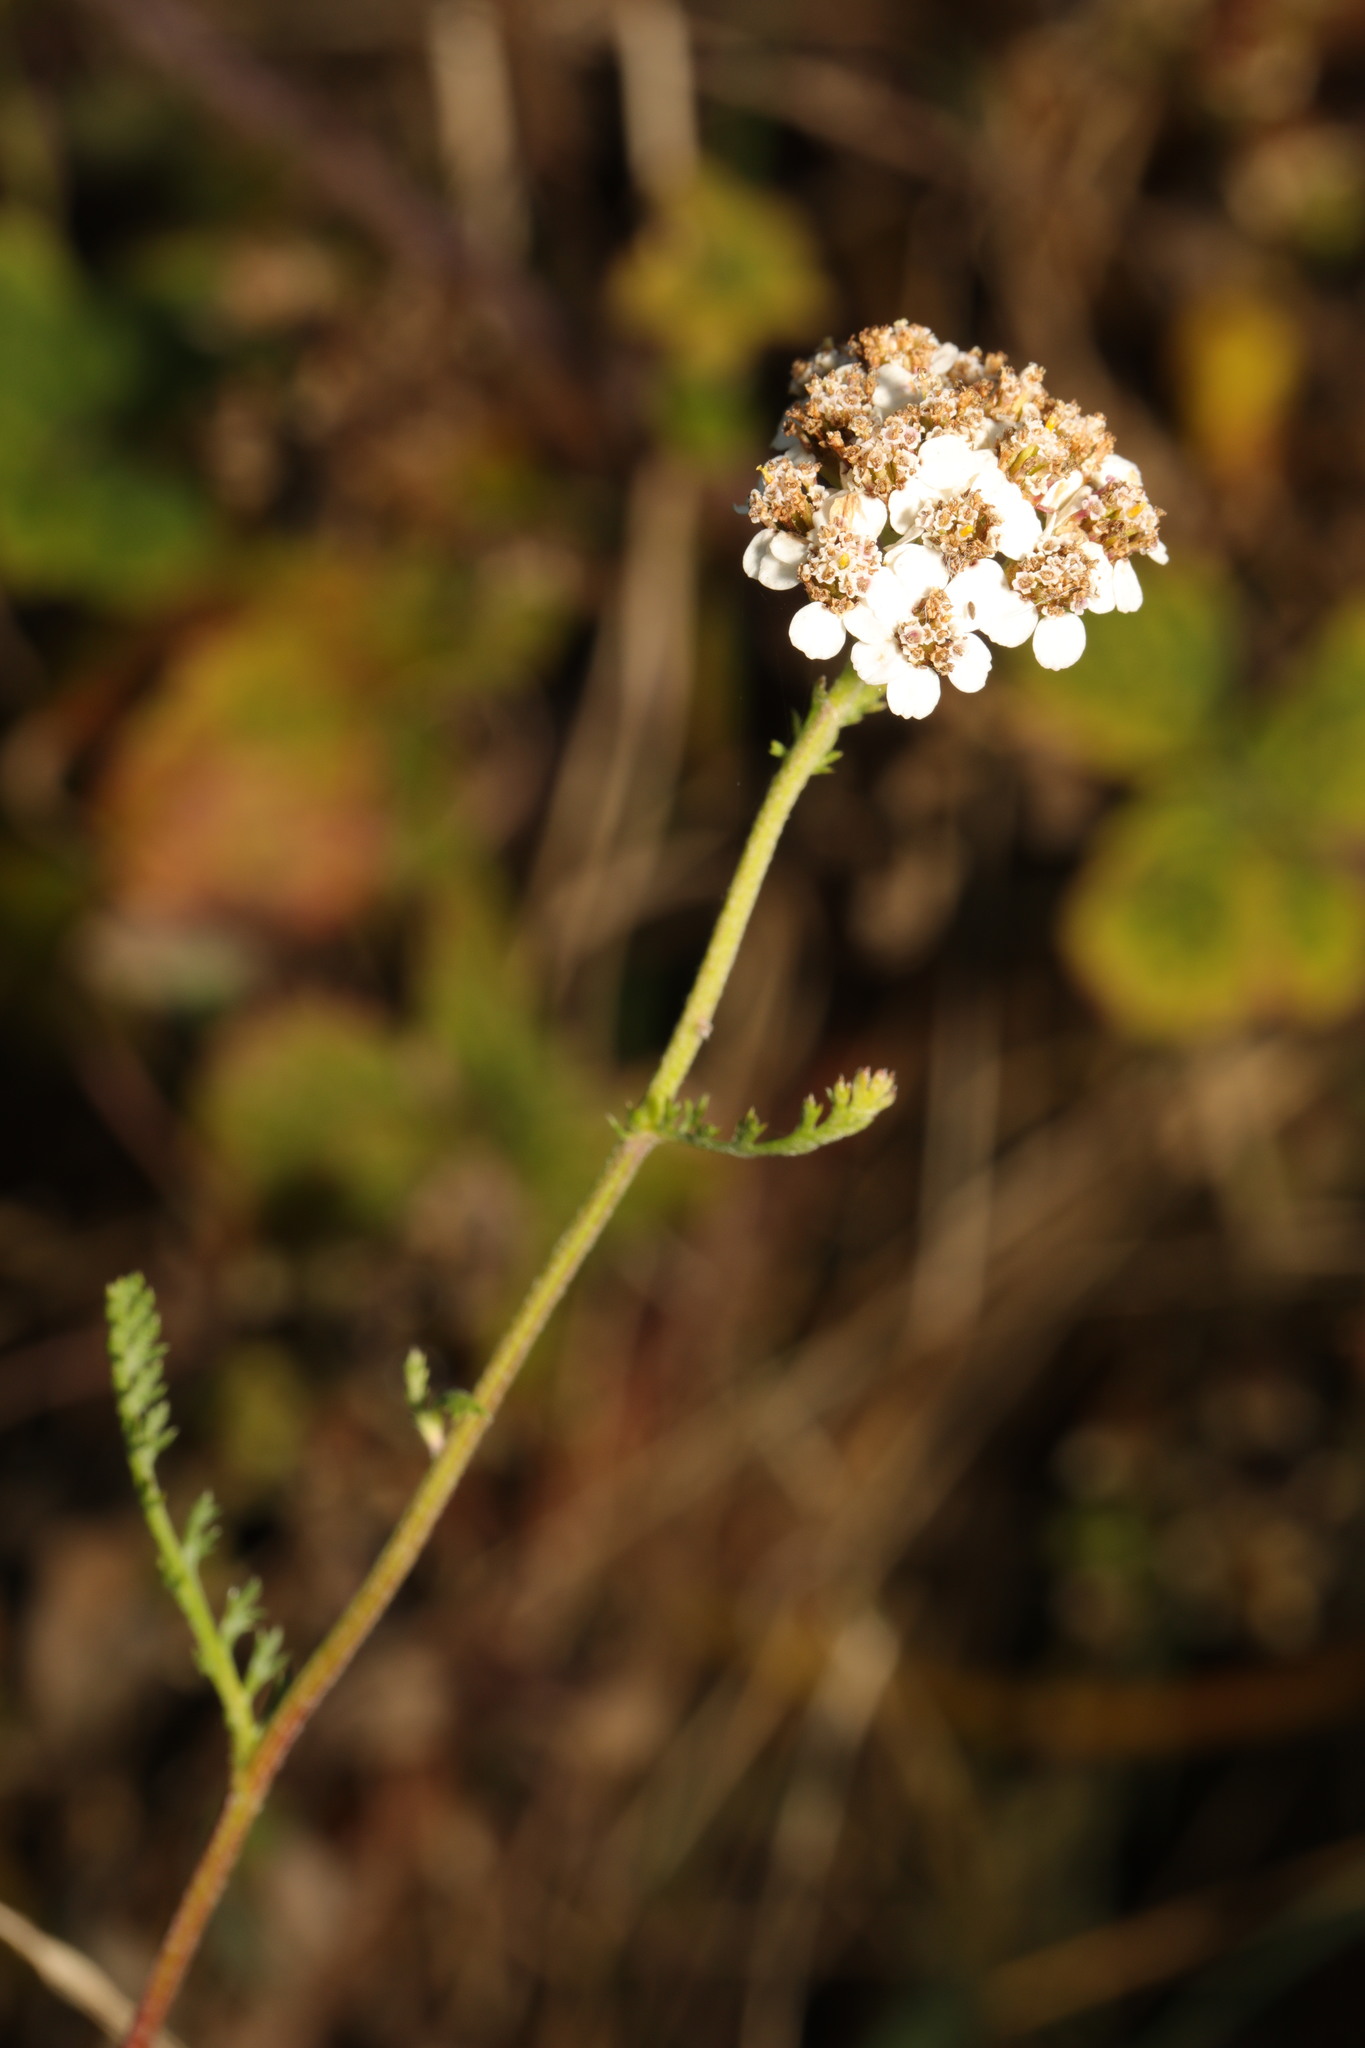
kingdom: Plantae
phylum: Tracheophyta
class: Magnoliopsida
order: Asterales
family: Asteraceae
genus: Achillea
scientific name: Achillea millefolium
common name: Yarrow
